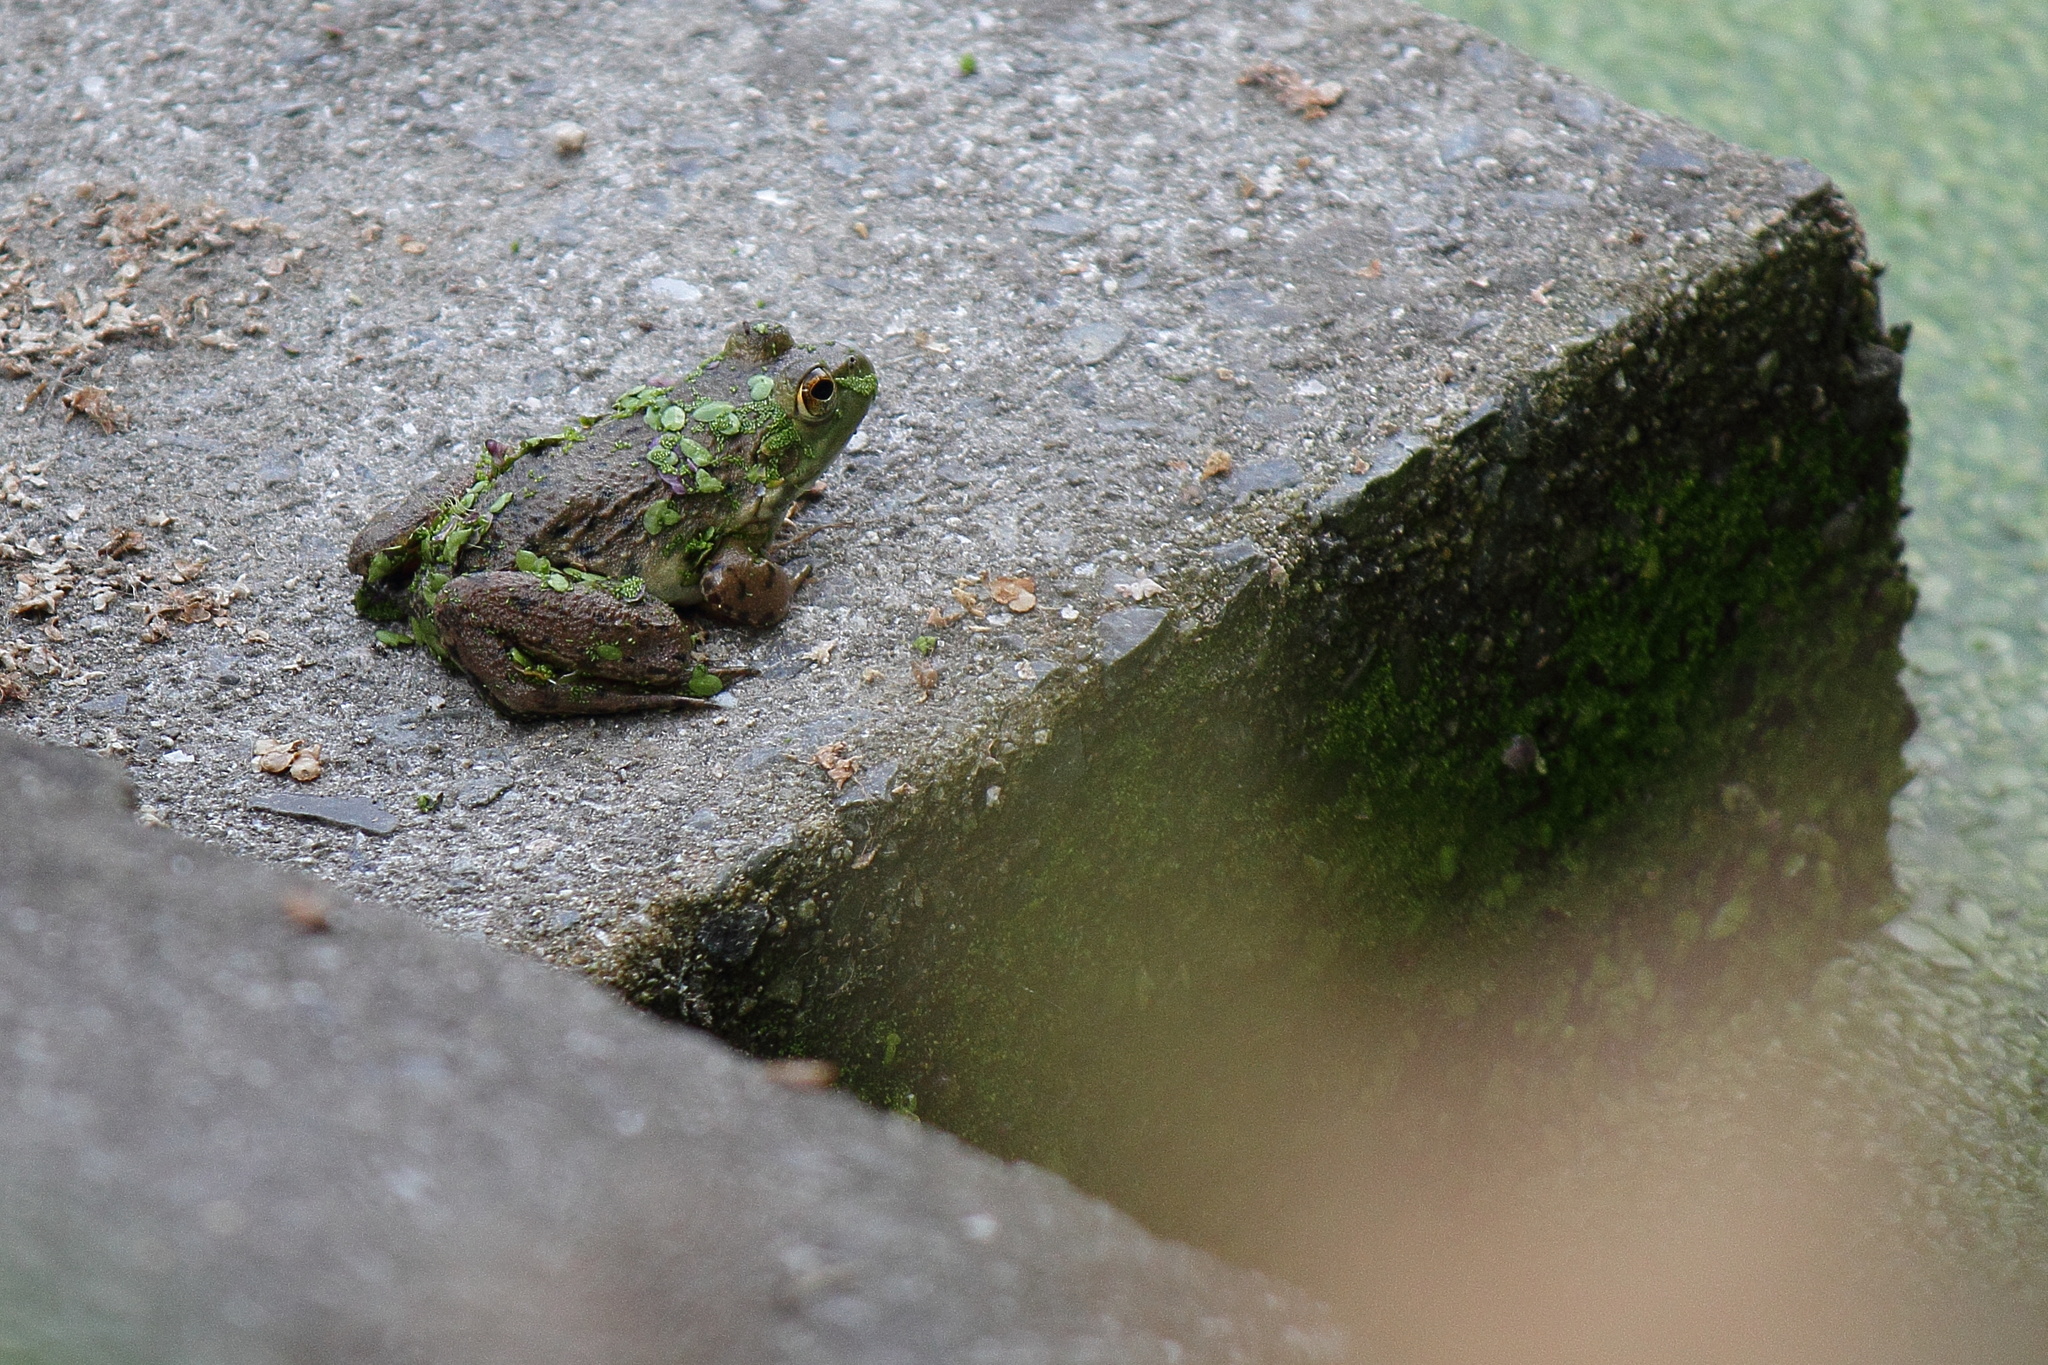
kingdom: Animalia
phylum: Chordata
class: Amphibia
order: Anura
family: Ranidae
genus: Lithobates
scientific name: Lithobates catesbeianus
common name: American bullfrog
